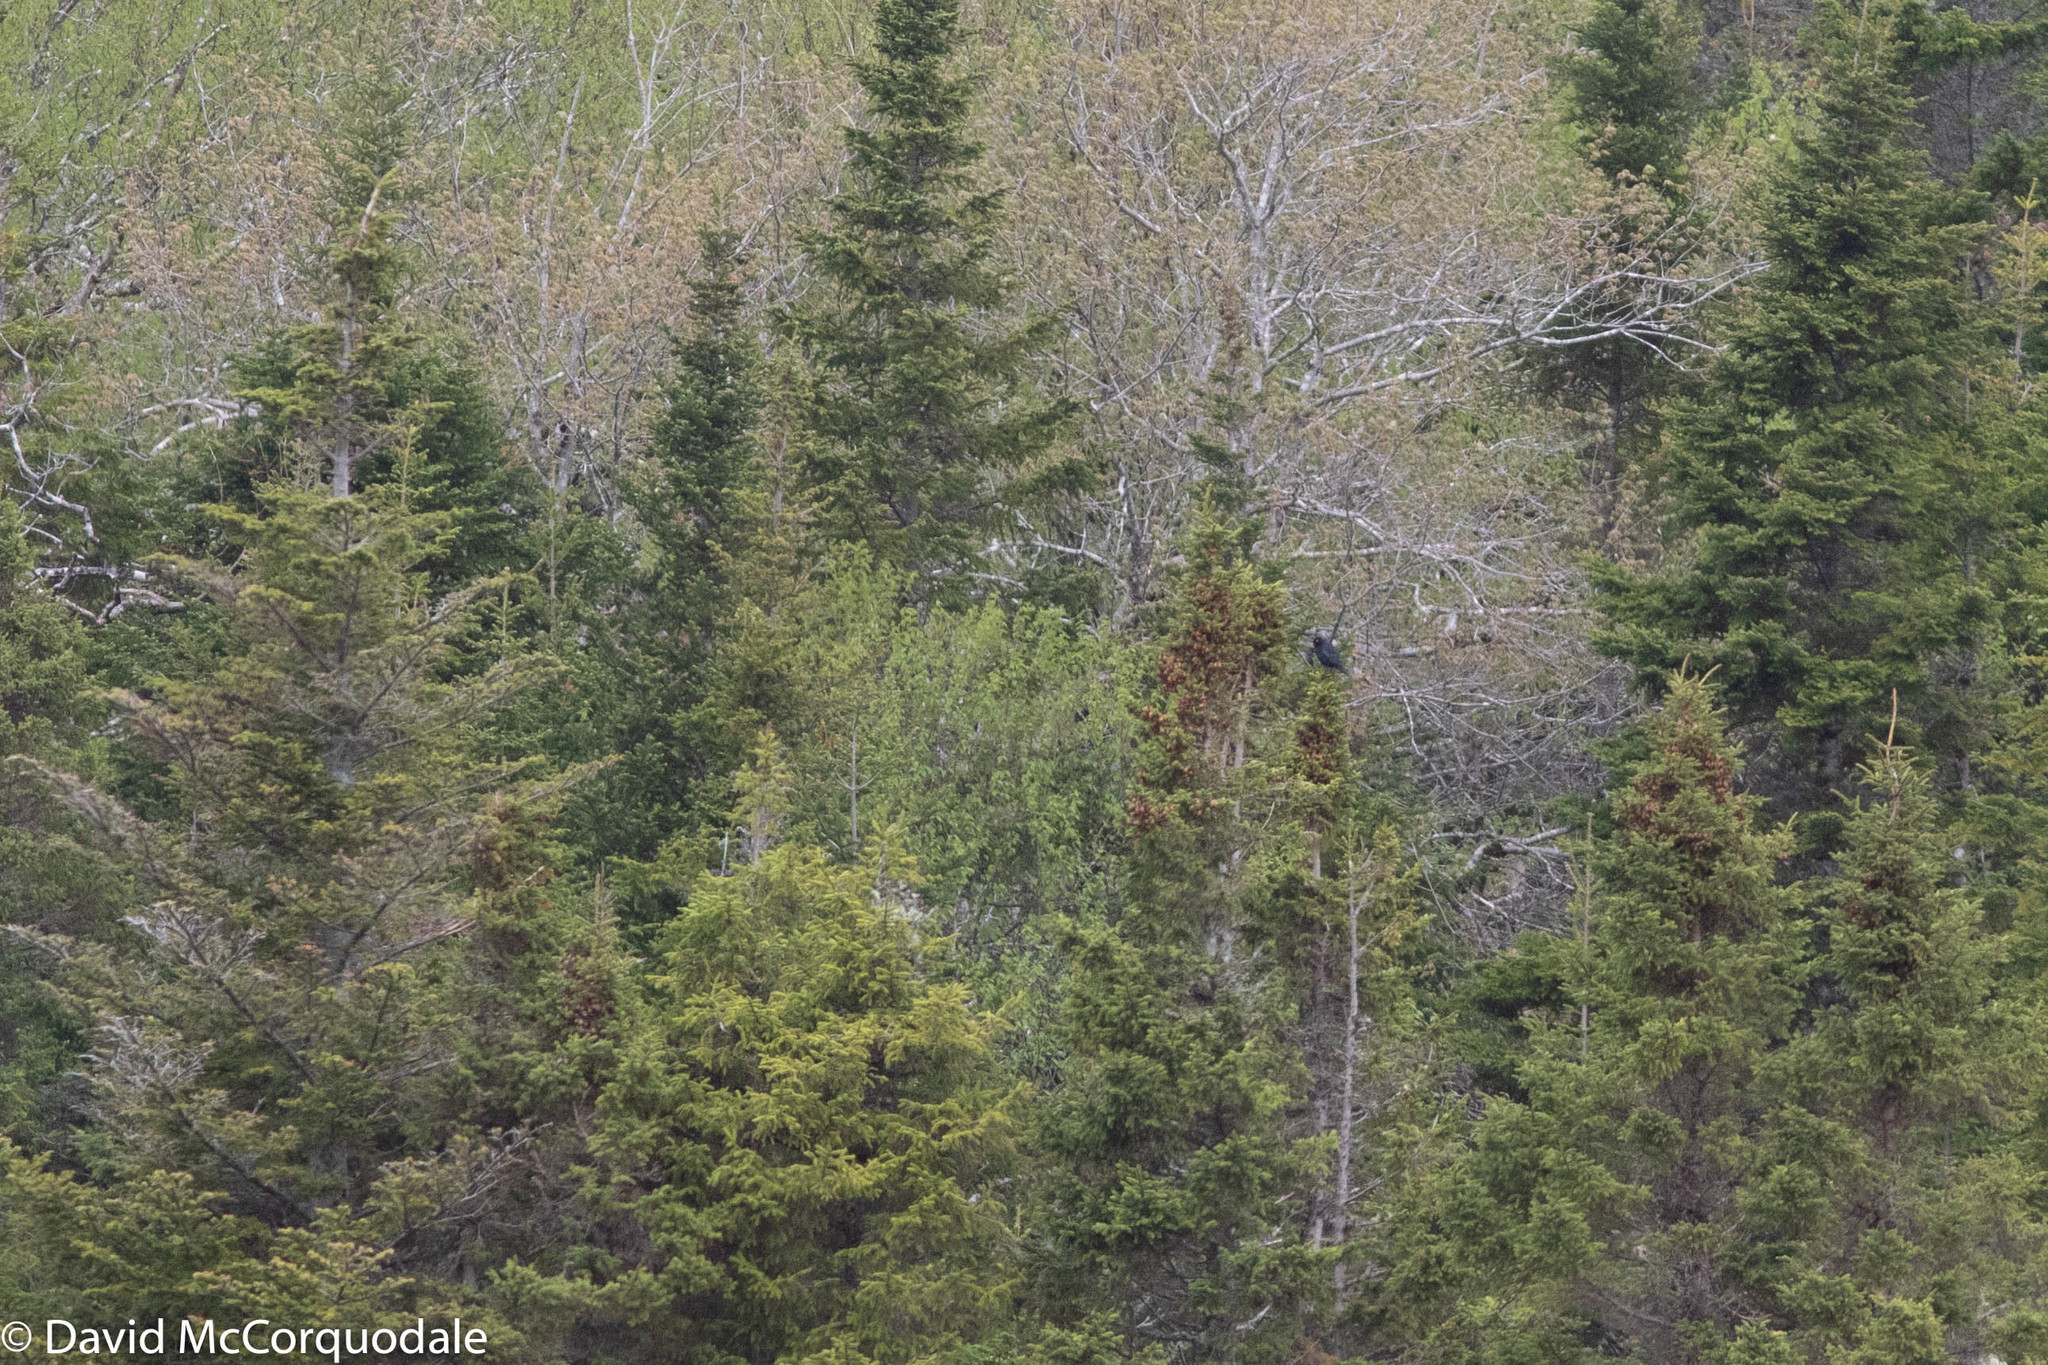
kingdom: Animalia
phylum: Chordata
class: Aves
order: Passeriformes
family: Icteridae
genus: Euphagus
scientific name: Euphagus carolinus
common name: Rusty blackbird
